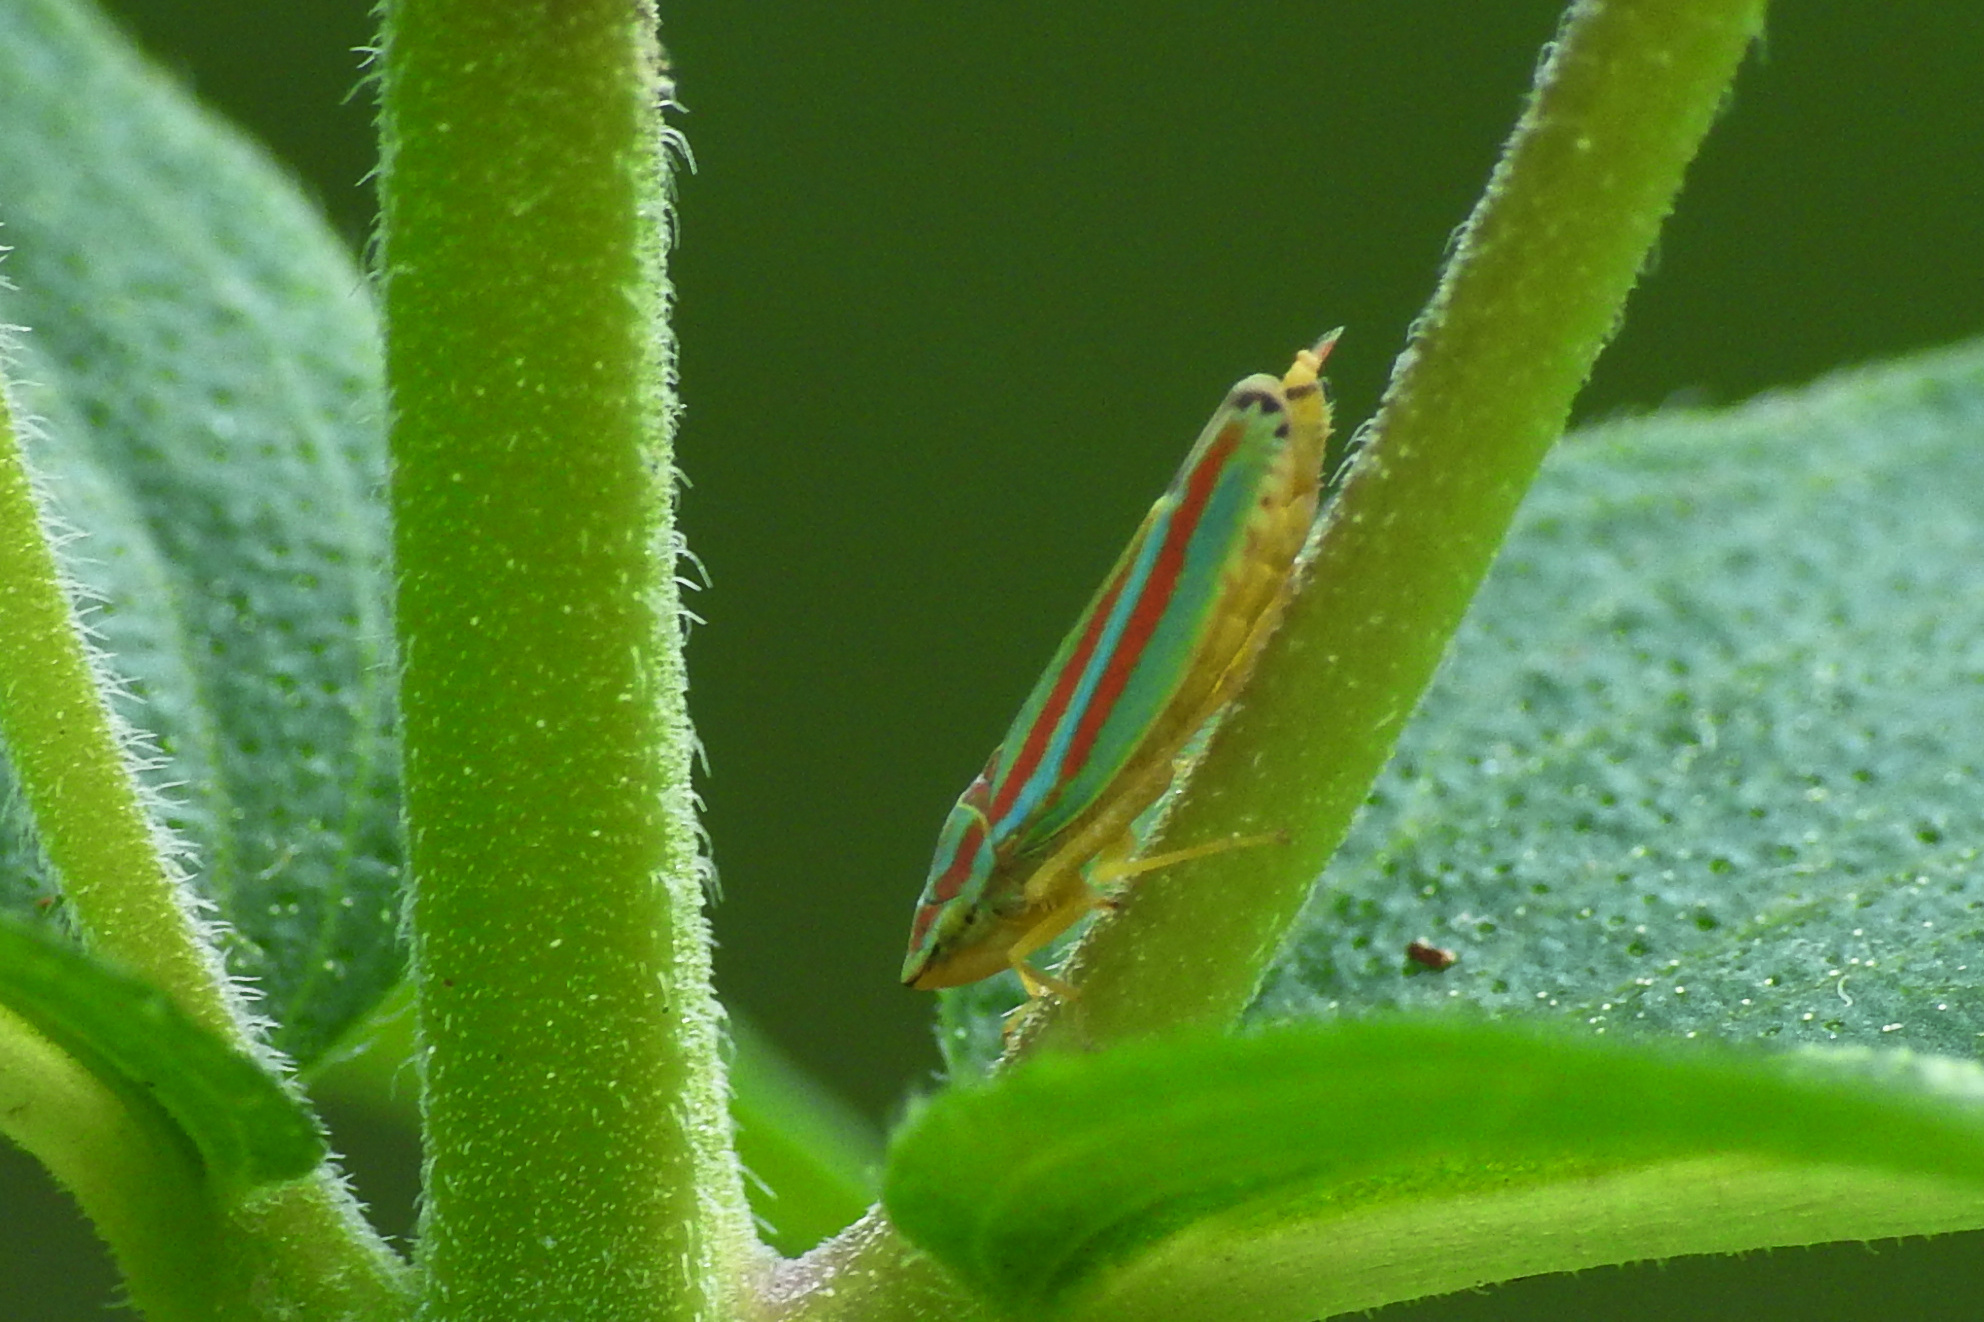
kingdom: Animalia
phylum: Arthropoda
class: Insecta
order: Hemiptera
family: Cicadellidae
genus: Graphocephala
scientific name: Graphocephala versuta
